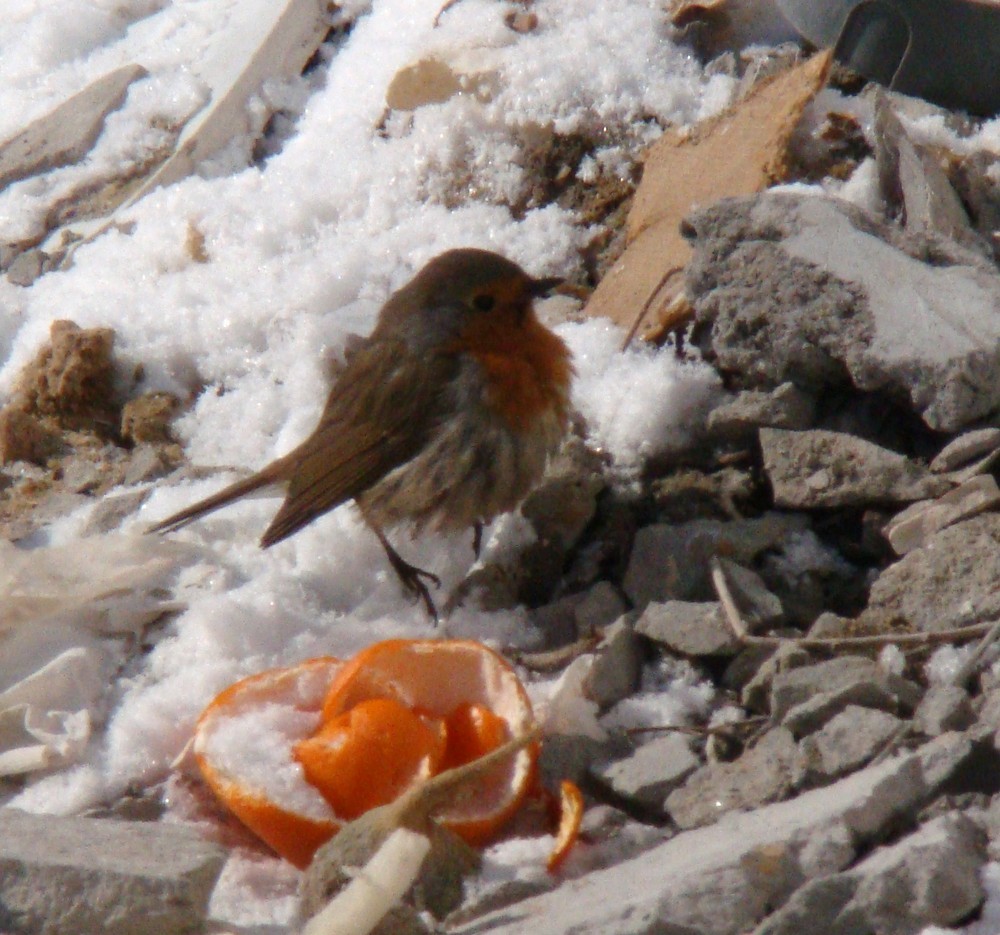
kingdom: Animalia
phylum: Chordata
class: Aves
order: Passeriformes
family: Muscicapidae
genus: Erithacus
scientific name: Erithacus rubecula
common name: European robin
